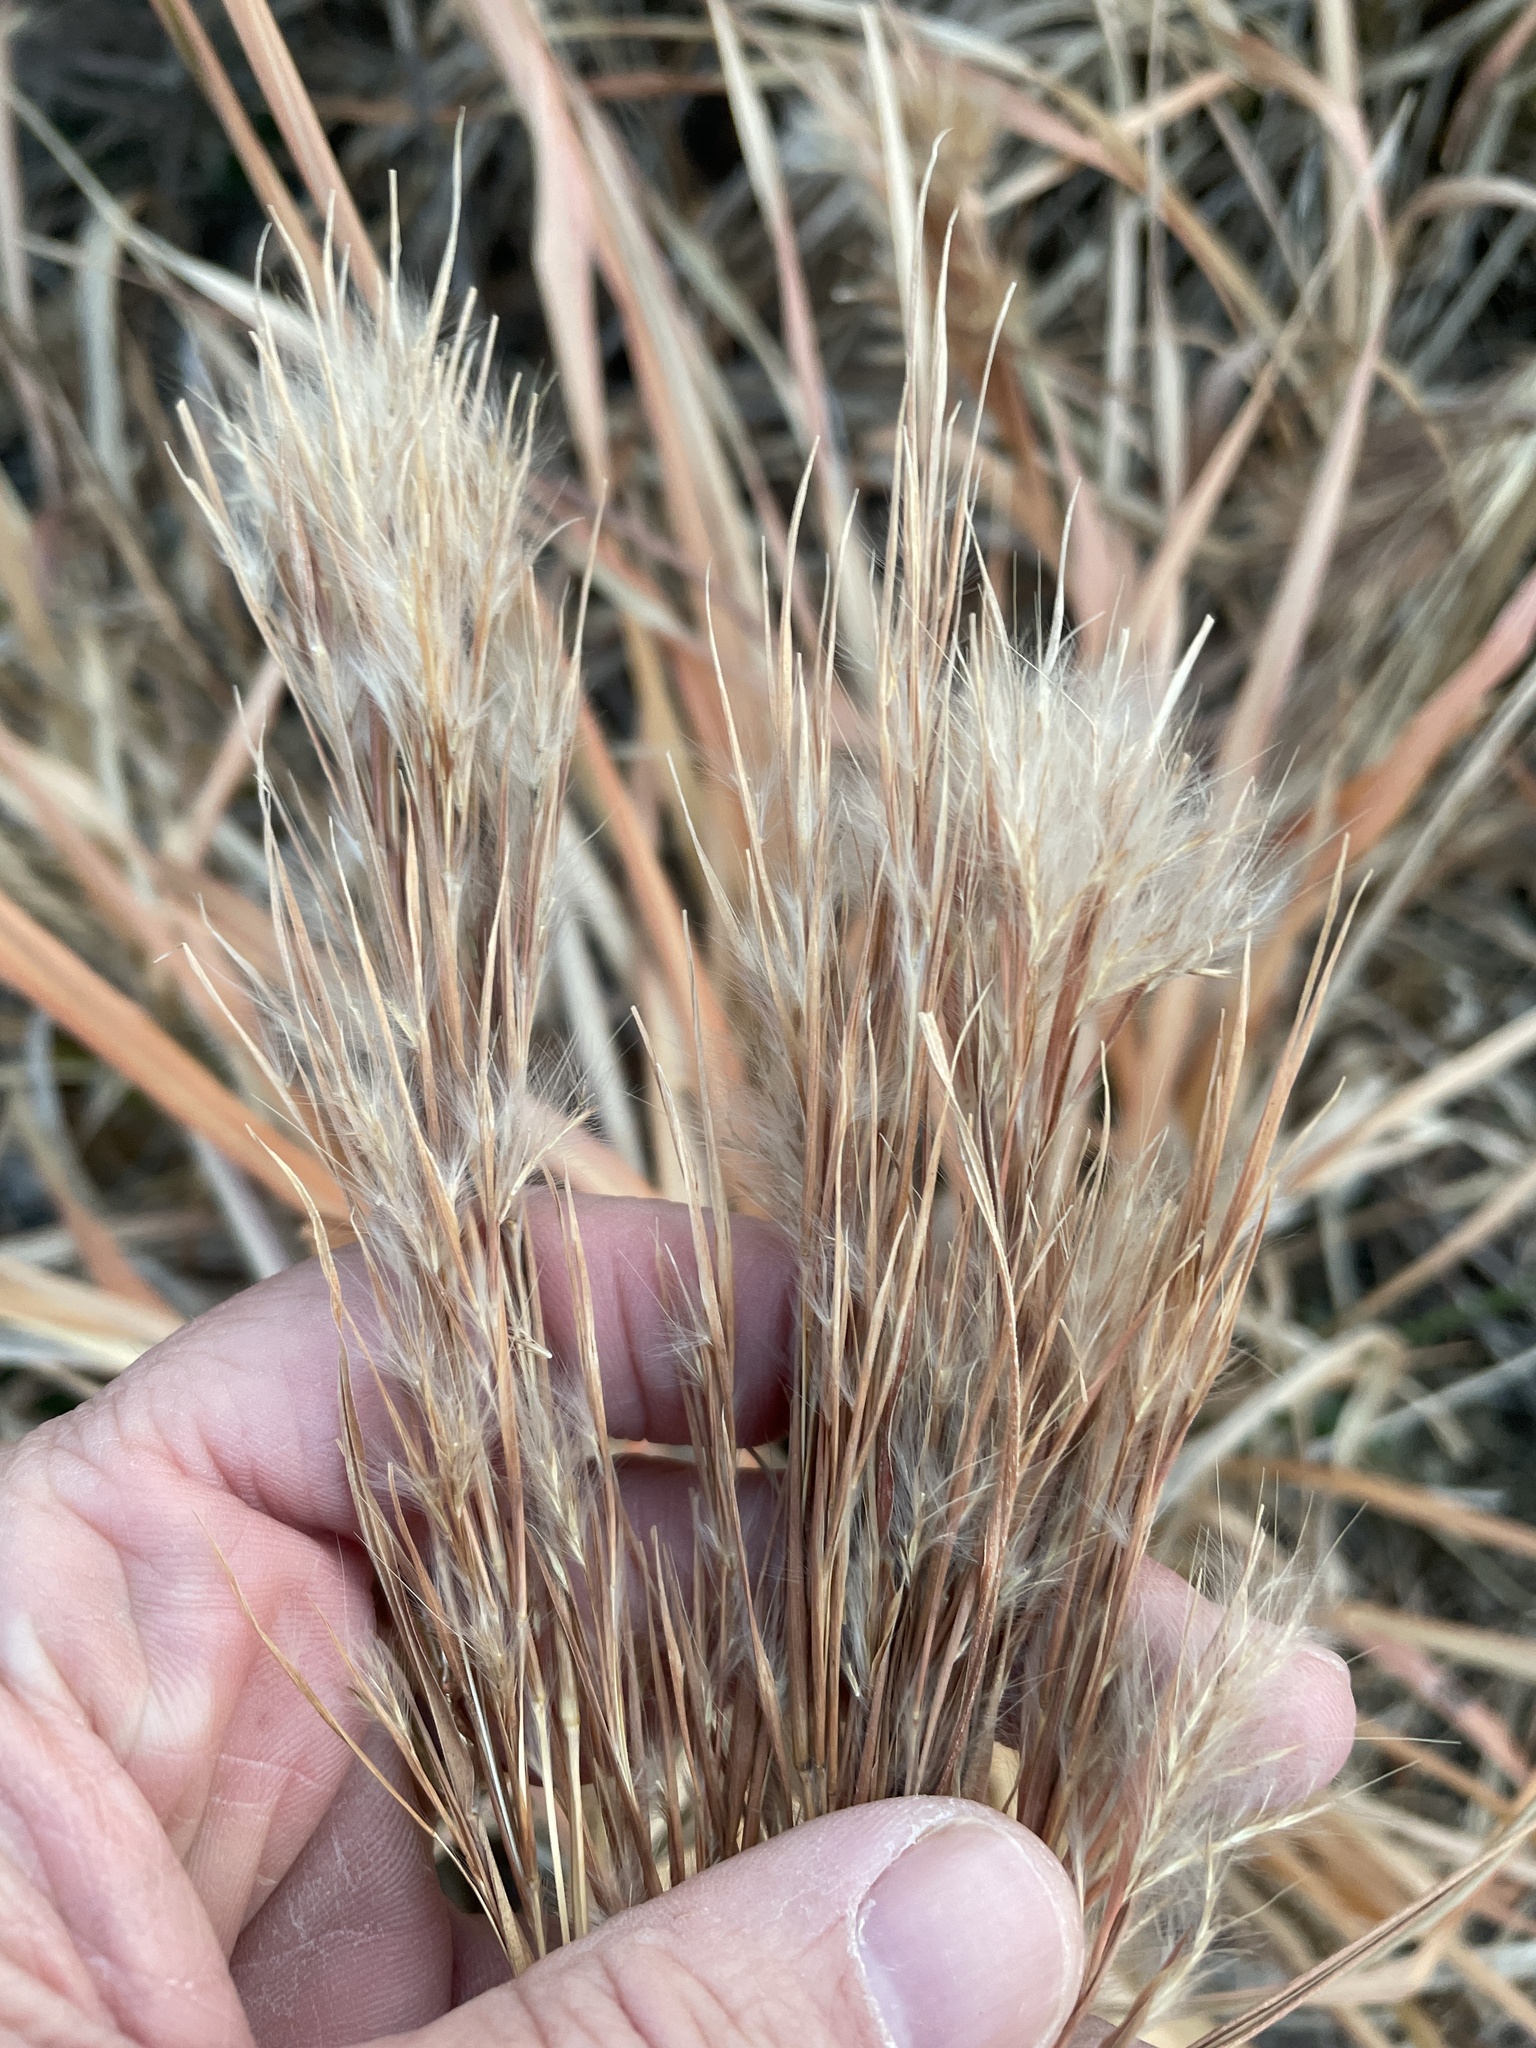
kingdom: Plantae
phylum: Tracheophyta
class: Liliopsida
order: Poales
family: Poaceae
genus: Andropogon
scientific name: Andropogon tenuispatheus
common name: Bushy bluestem
